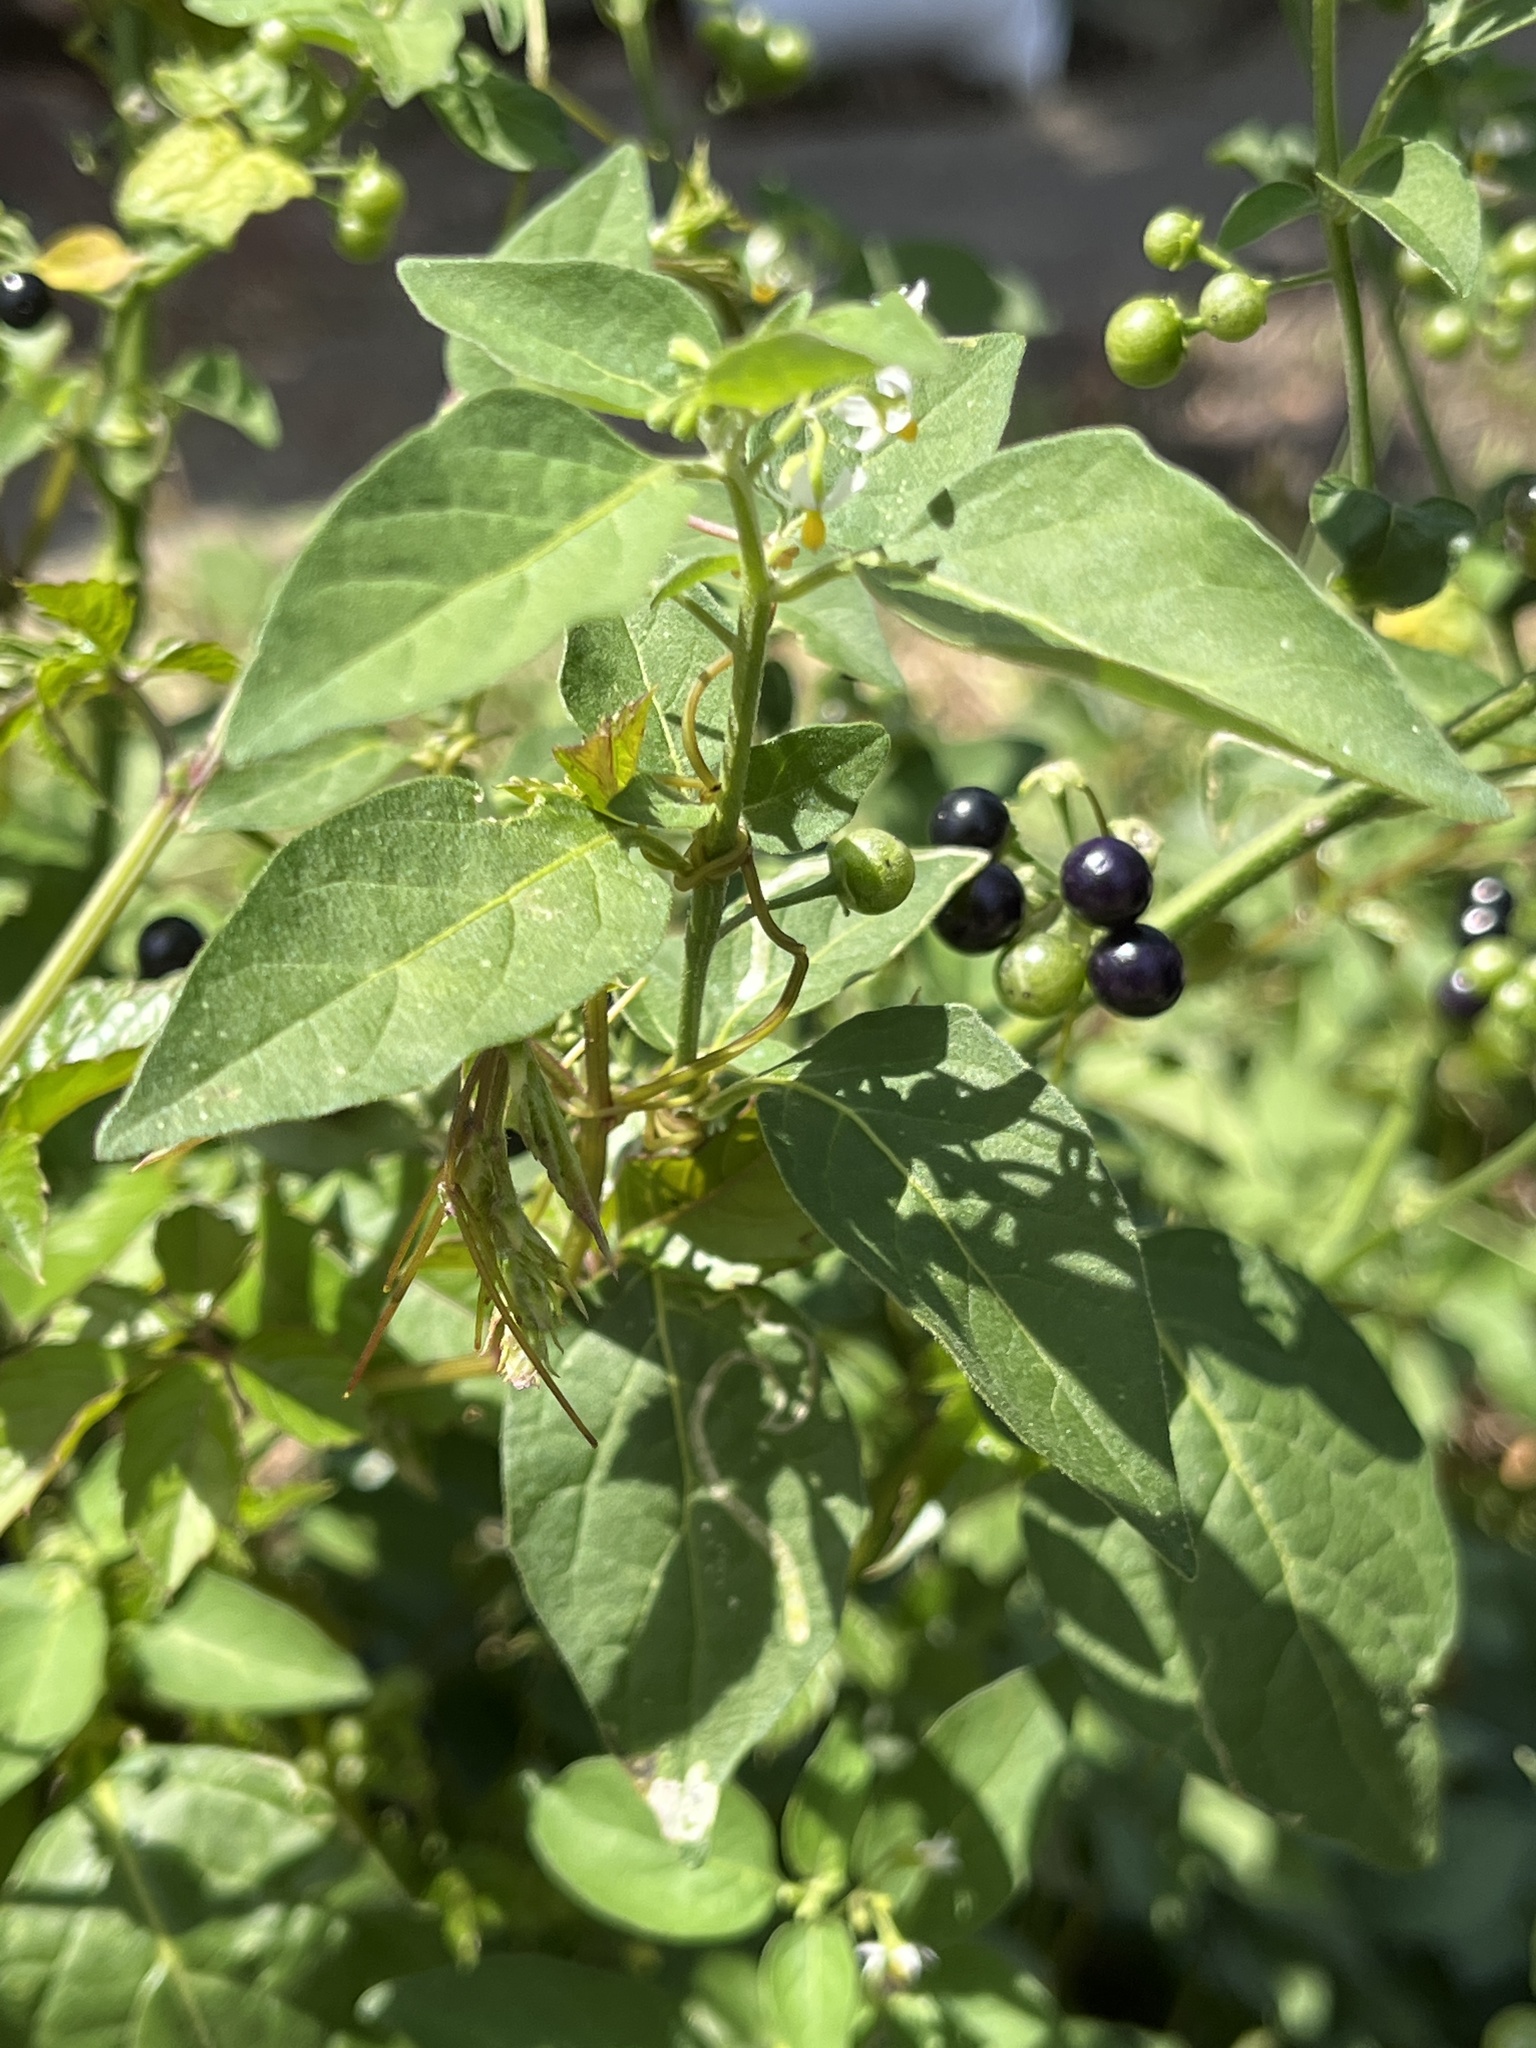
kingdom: Plantae
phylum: Tracheophyta
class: Magnoliopsida
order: Solanales
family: Solanaceae
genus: Solanum
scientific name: Solanum americanum
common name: American black nightshade
